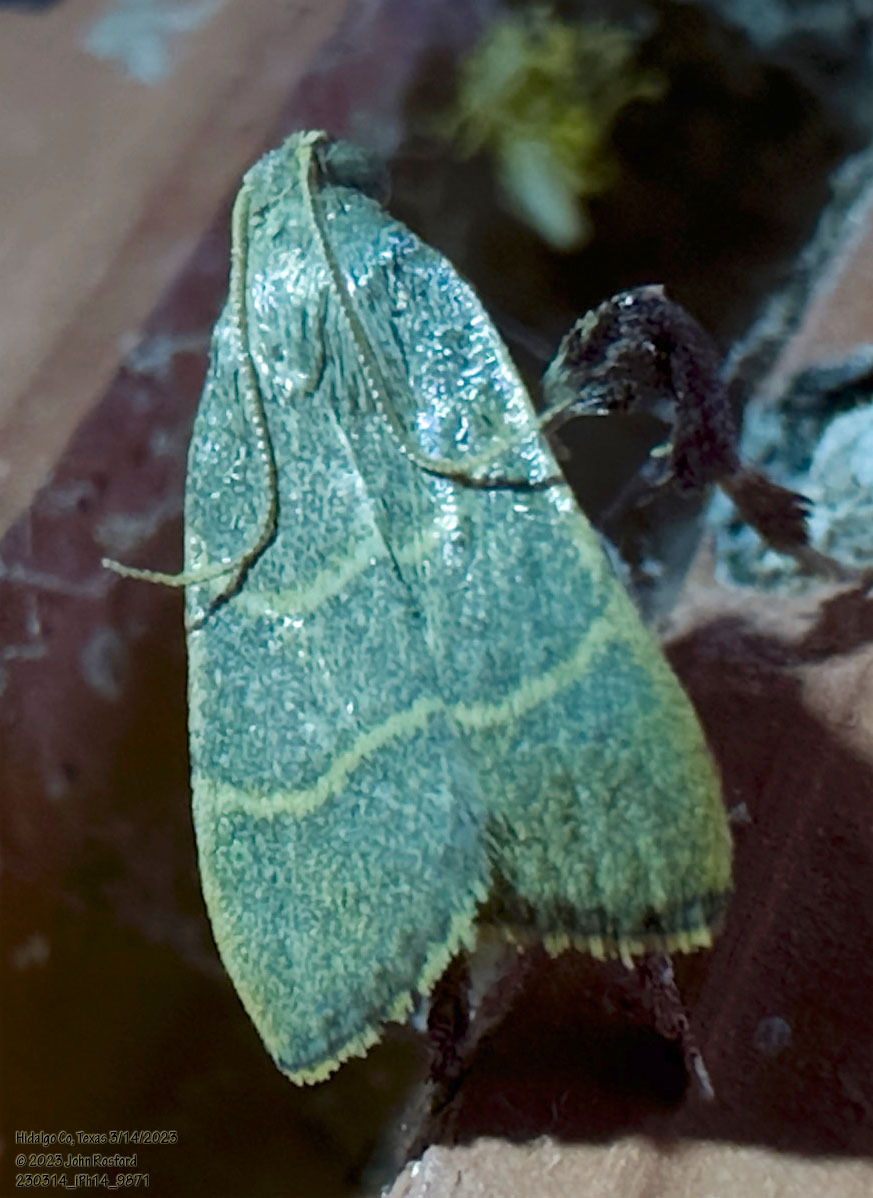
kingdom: Animalia
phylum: Arthropoda
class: Insecta
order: Lepidoptera
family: Pyralidae
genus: Parachma
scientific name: Parachma ochracealis
